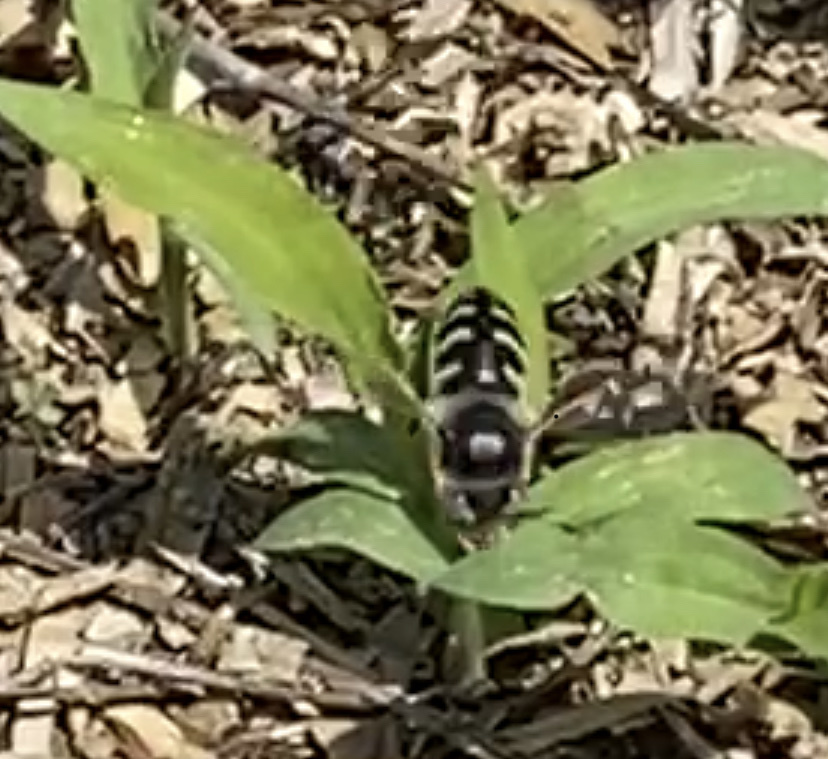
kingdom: Animalia
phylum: Arthropoda
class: Insecta
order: Hymenoptera
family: Crabronidae
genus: Bembix
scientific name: Bembix americana
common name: American sand wasp
